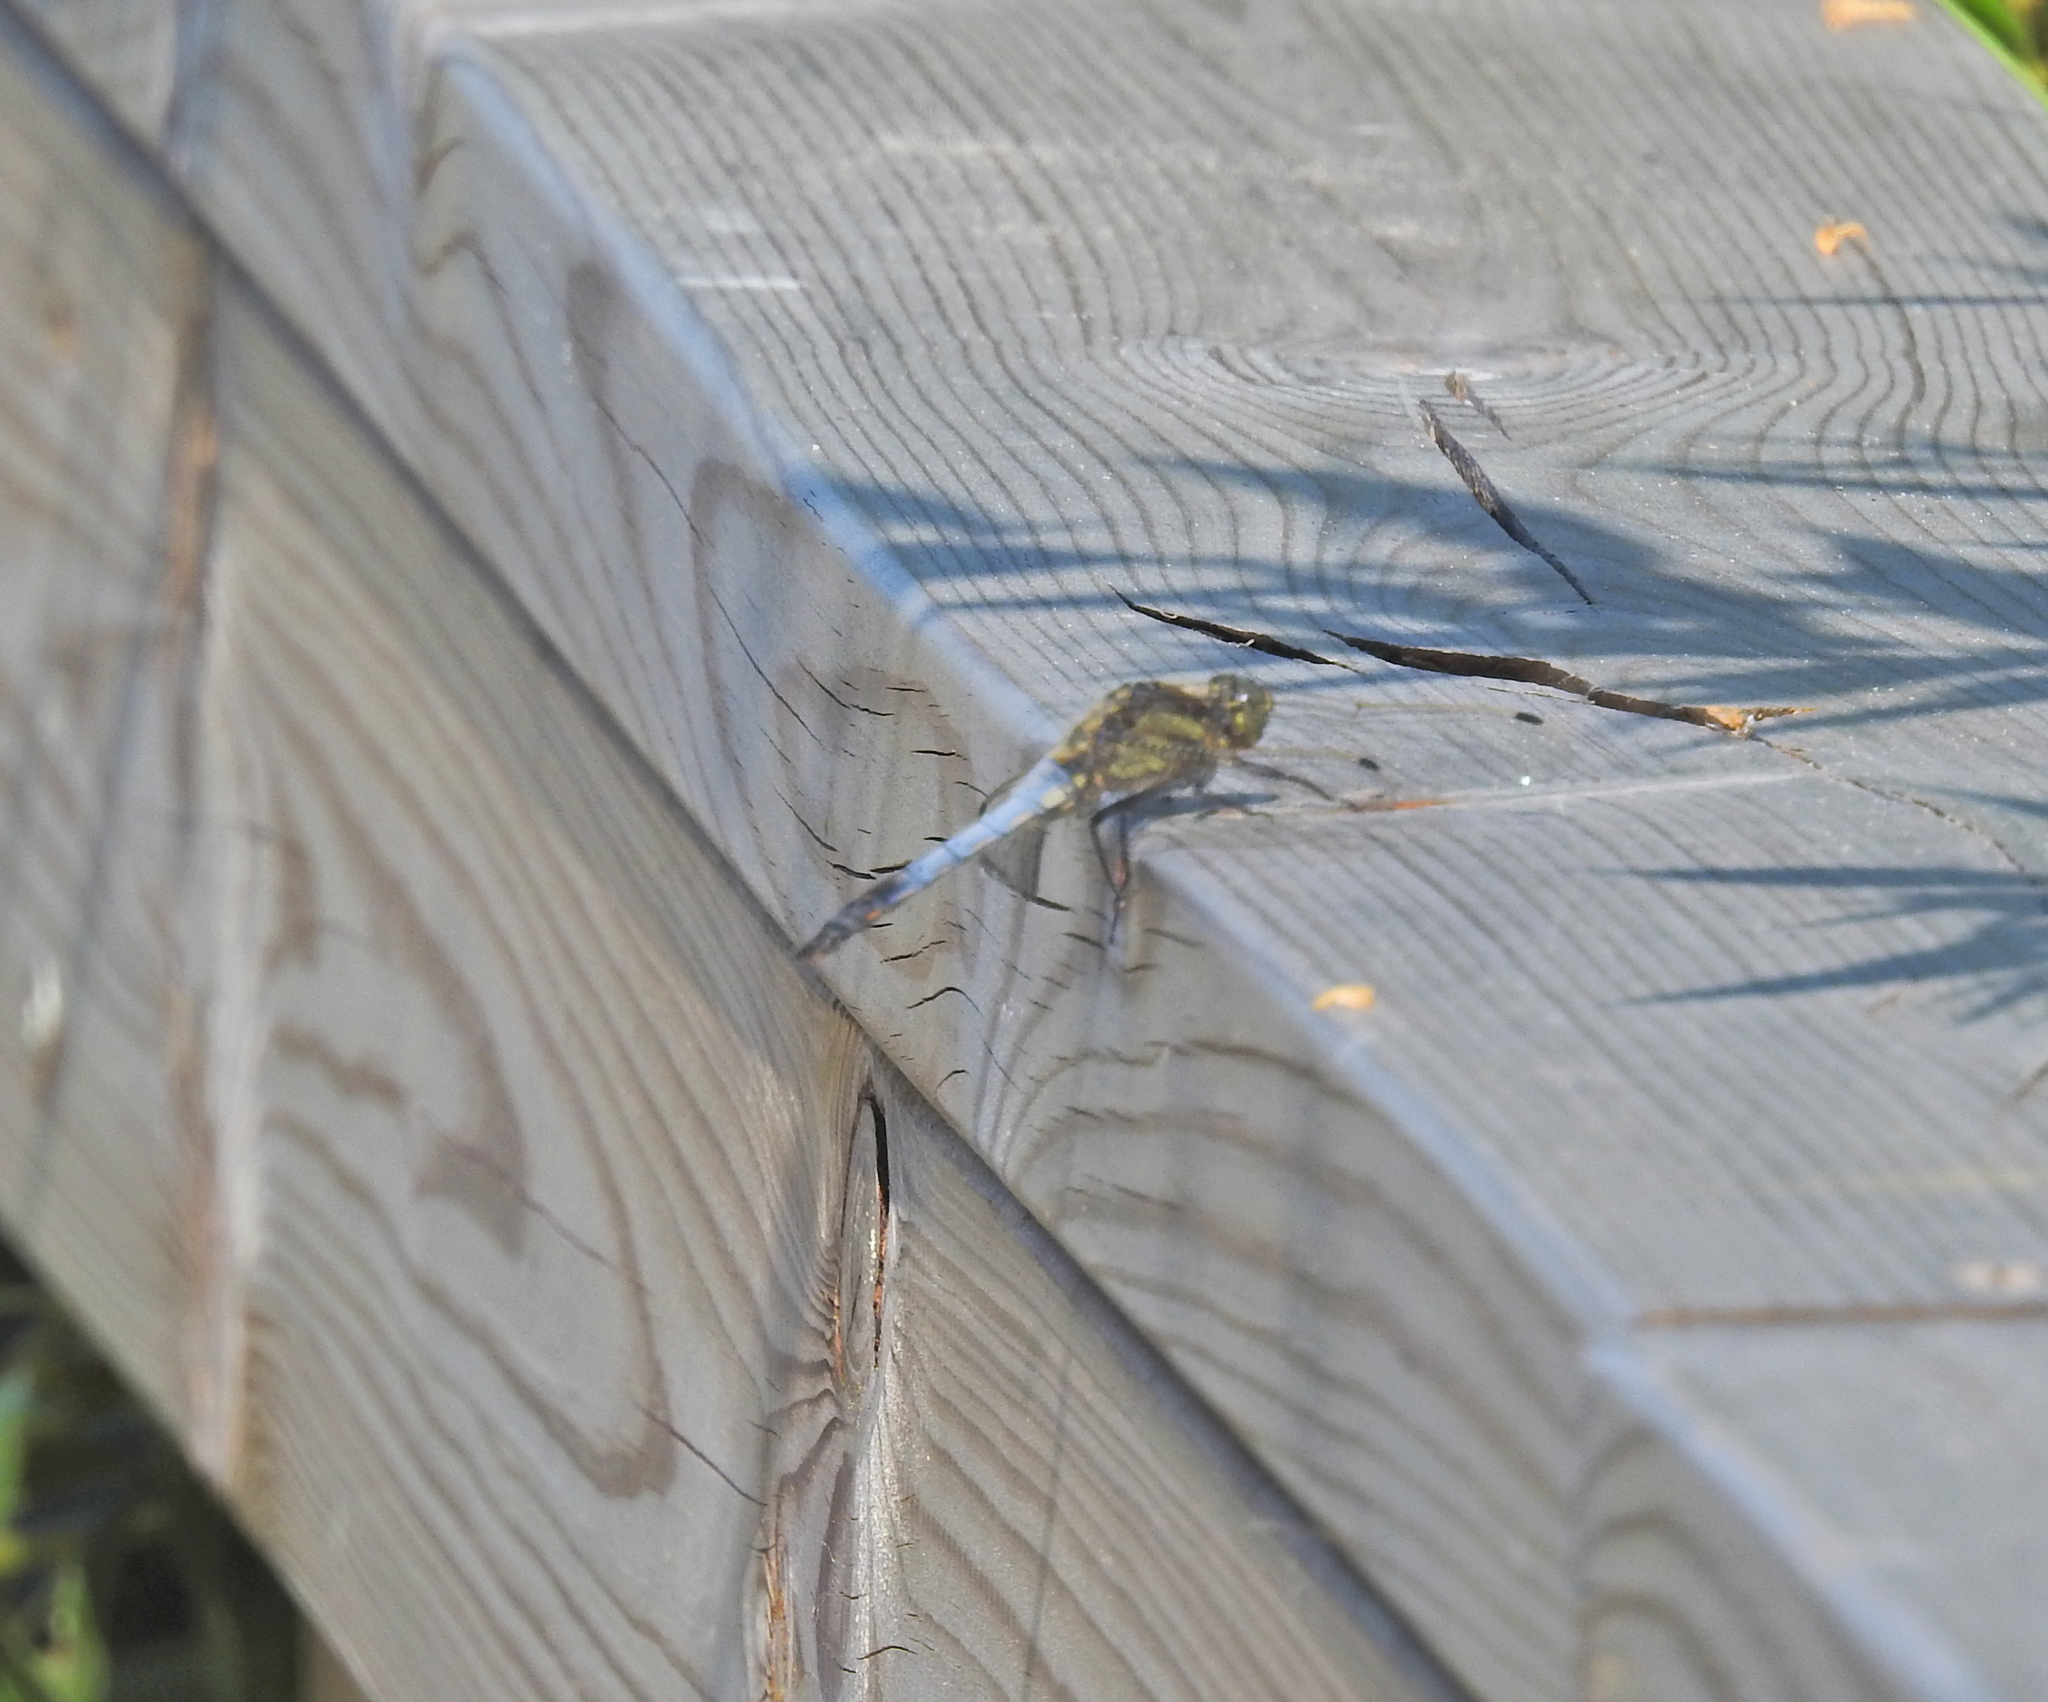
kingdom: Animalia
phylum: Arthropoda
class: Insecta
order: Odonata
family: Libellulidae
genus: Orthetrum
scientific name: Orthetrum cancellatum
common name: Black-tailed skimmer
